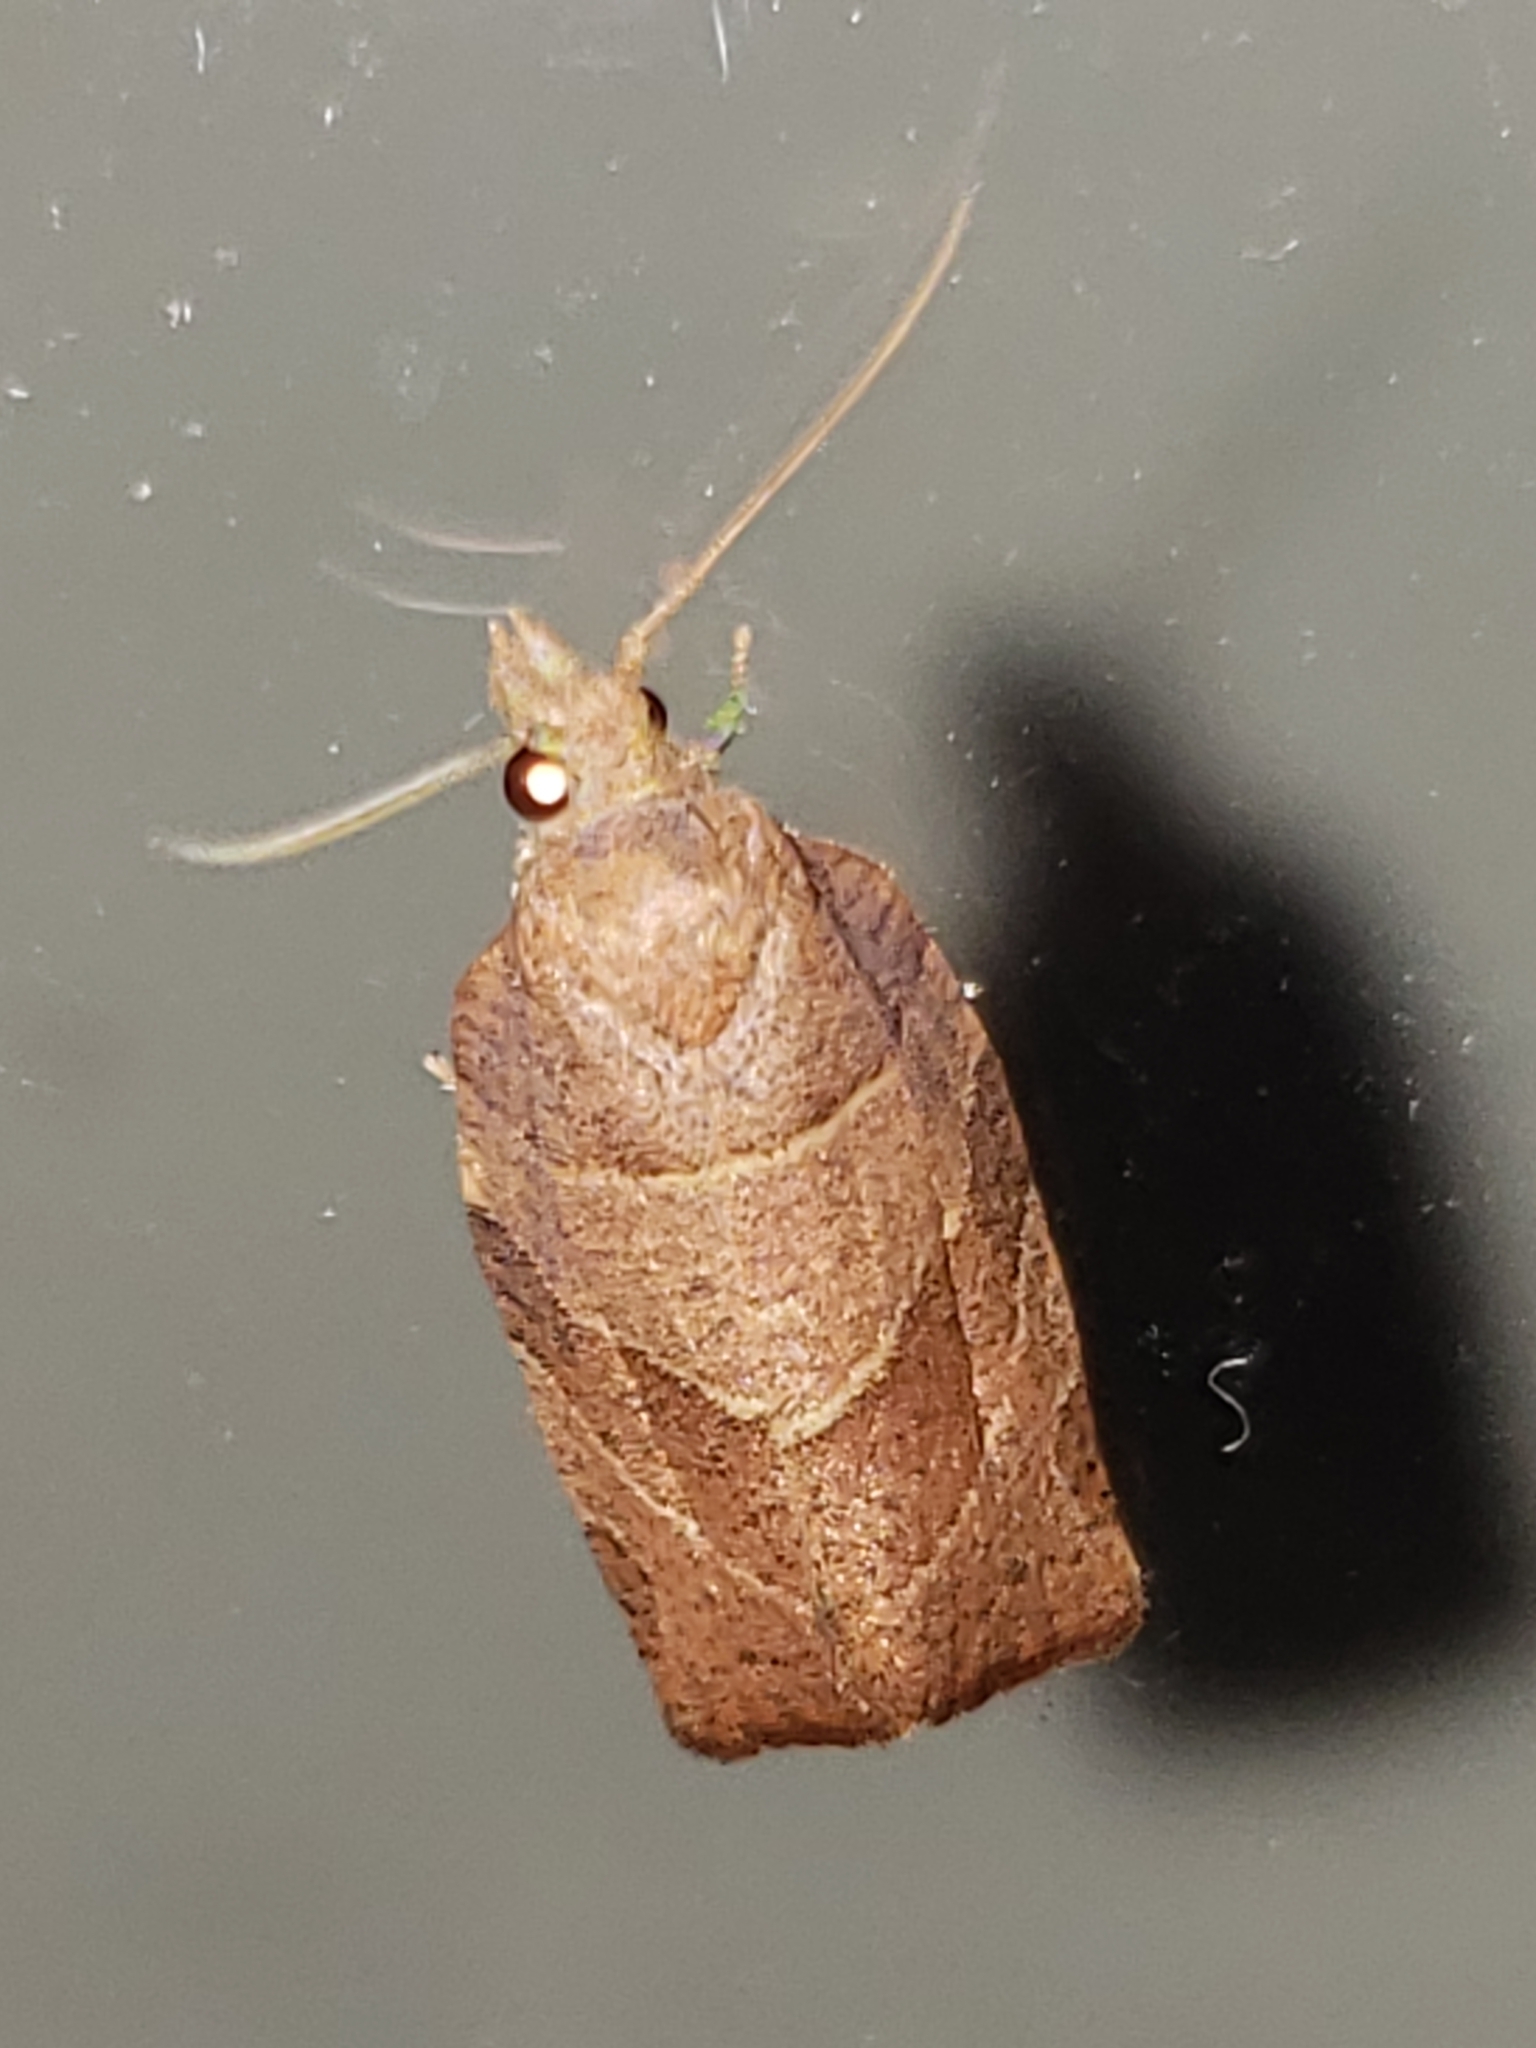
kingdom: Animalia
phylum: Arthropoda
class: Insecta
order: Lepidoptera
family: Tortricidae
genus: Pandemis
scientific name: Pandemis limitata
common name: Three-lined leafroller moth
